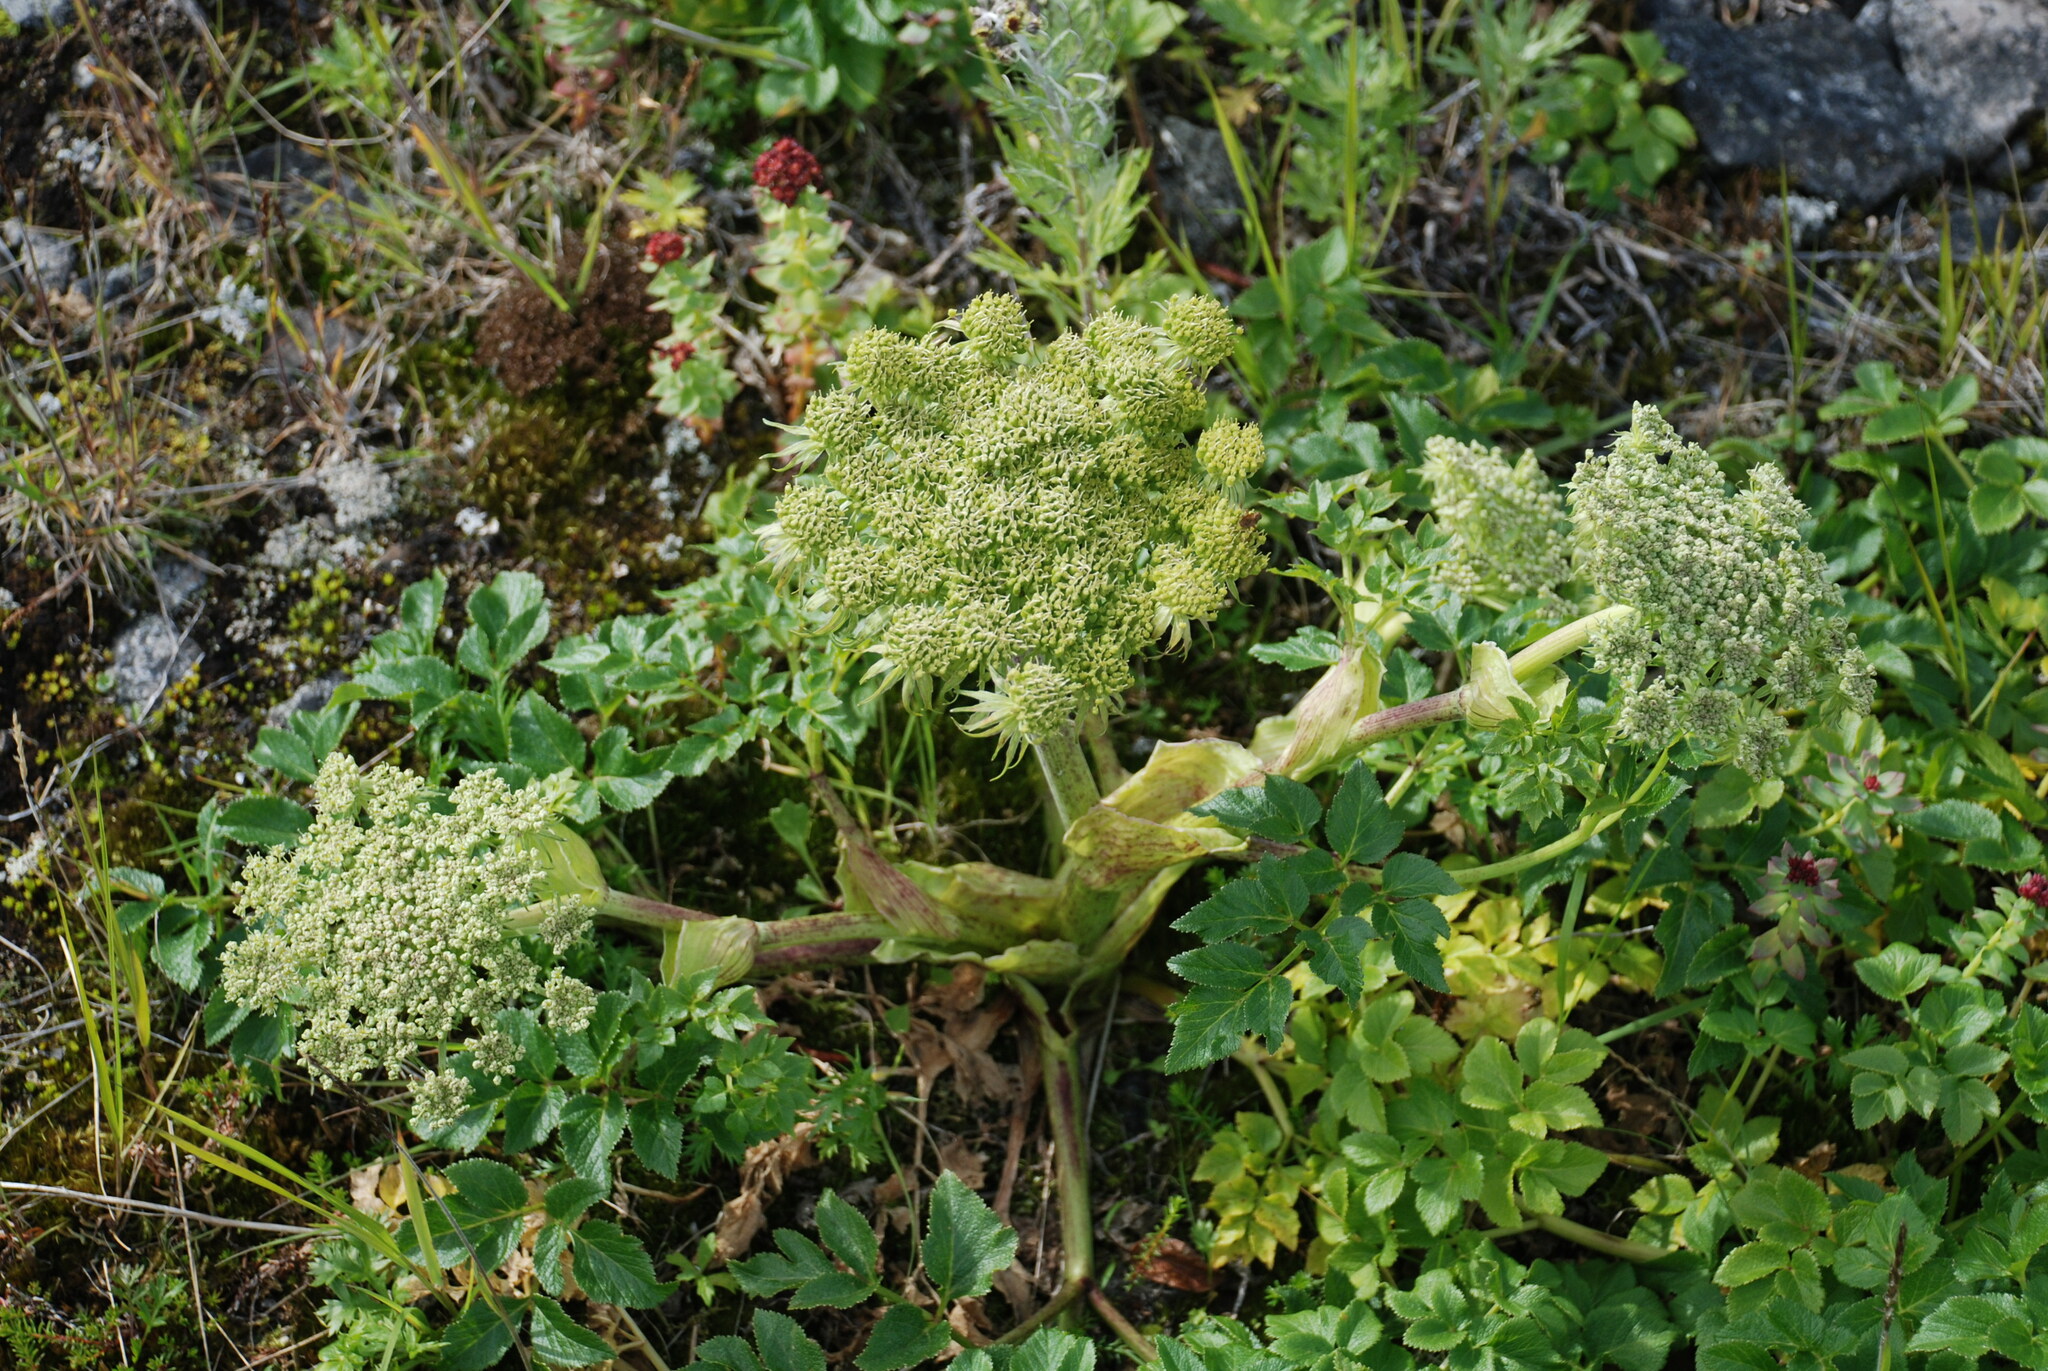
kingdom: Plantae
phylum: Tracheophyta
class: Magnoliopsida
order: Apiales
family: Apiaceae
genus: Angelica
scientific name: Angelica gmelinii
